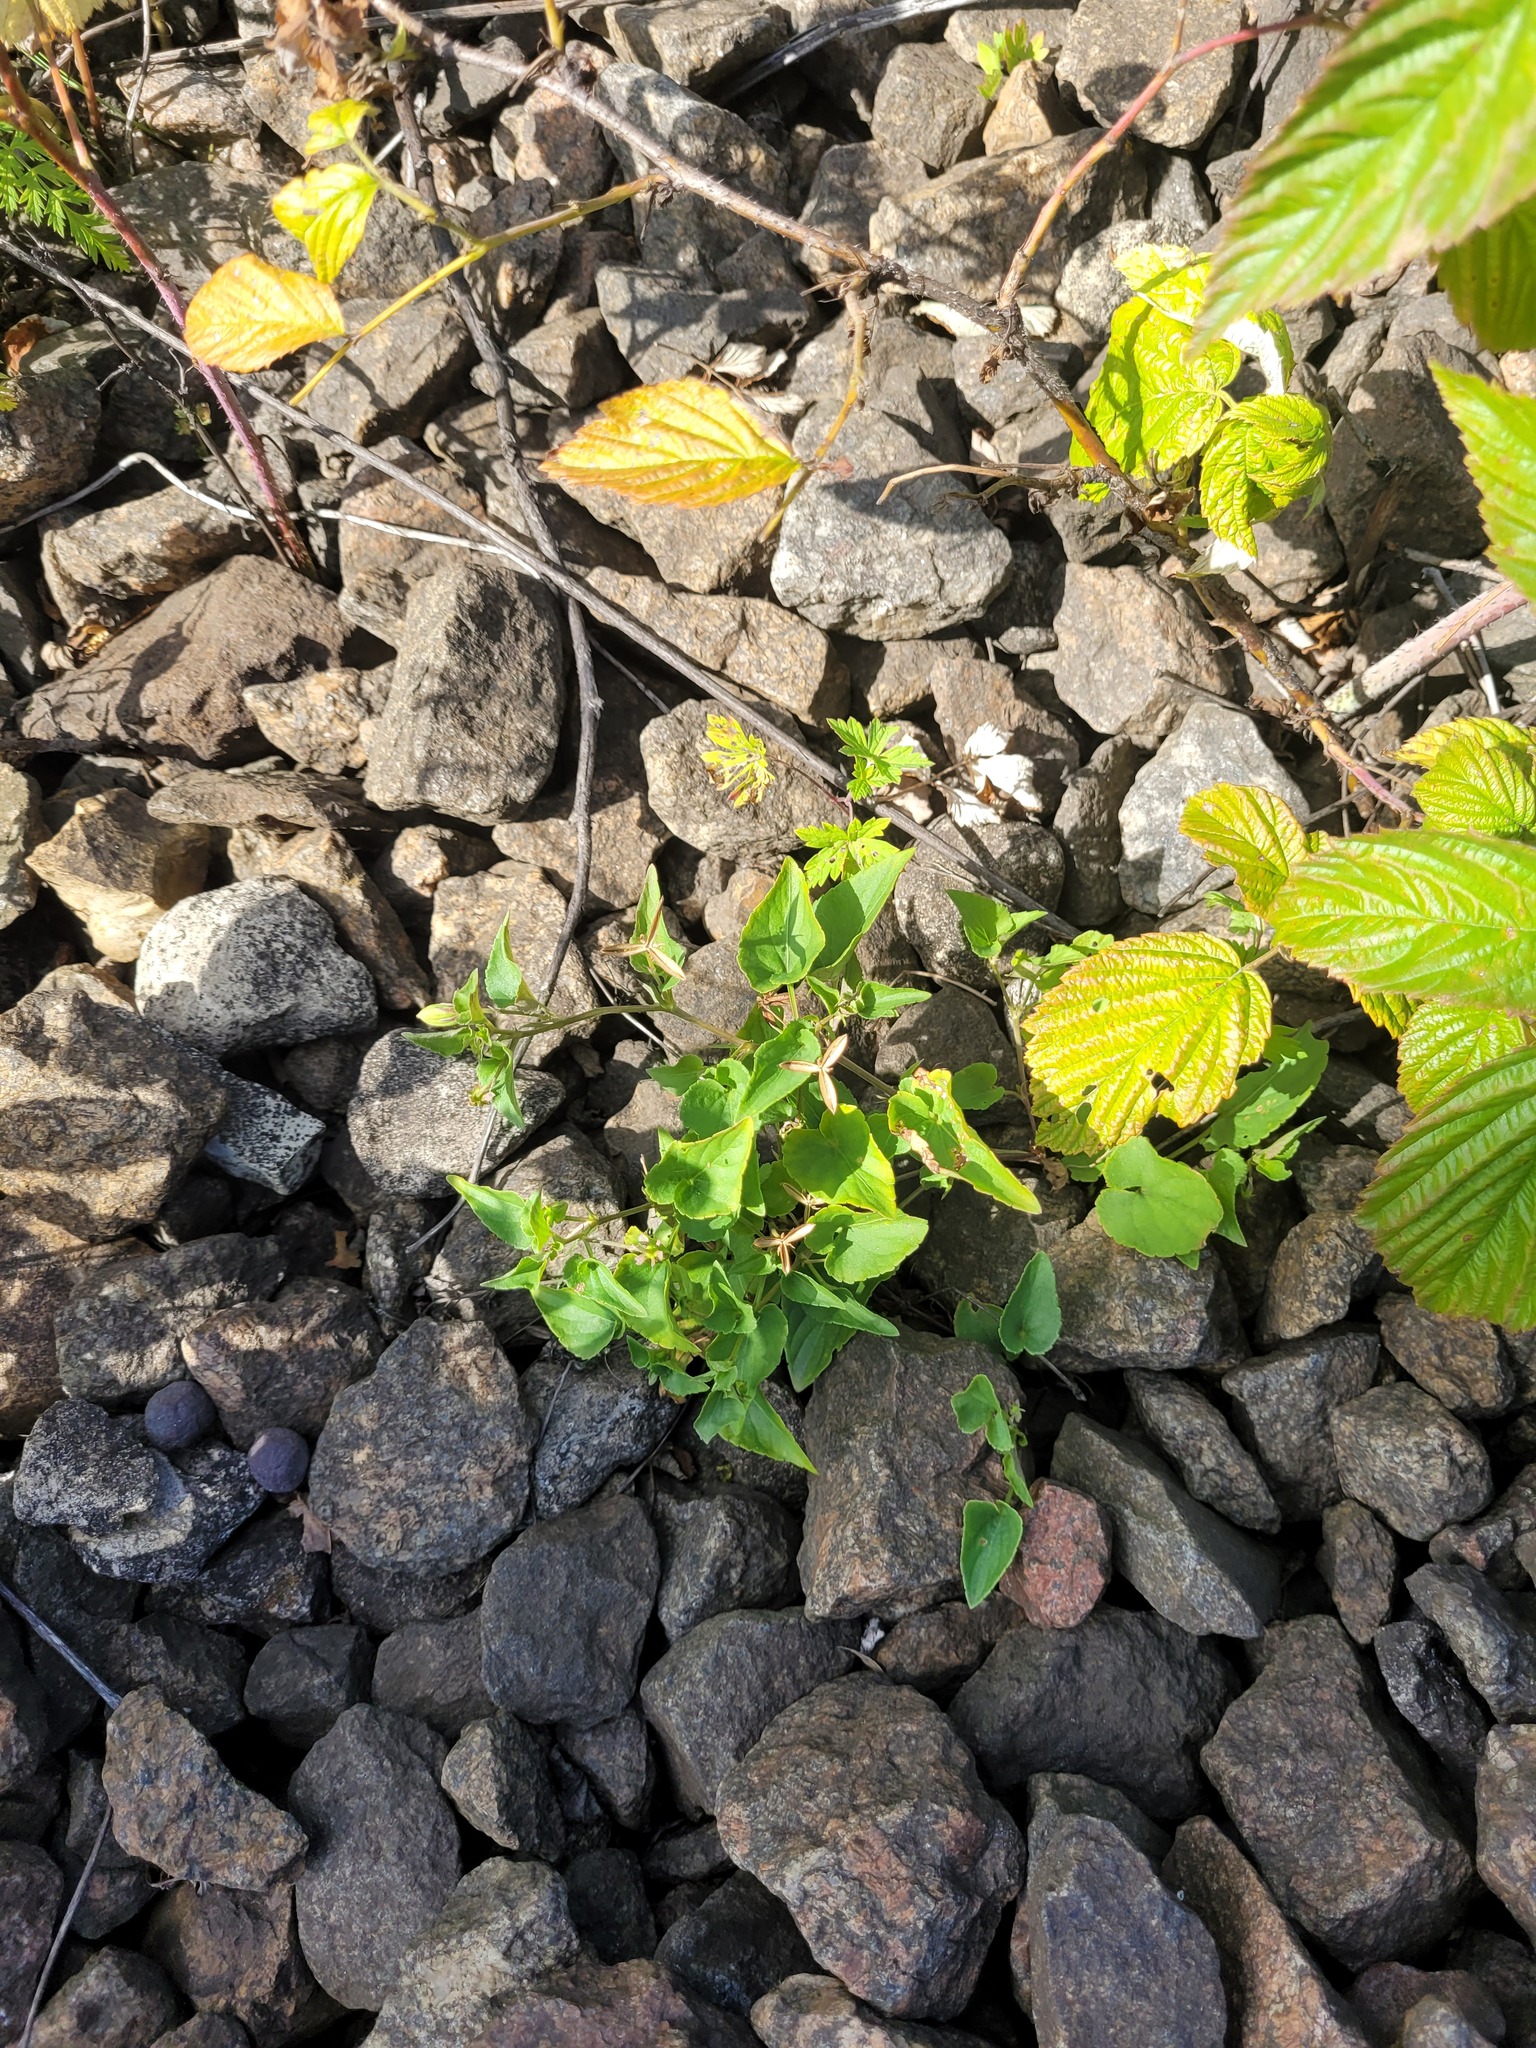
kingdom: Plantae
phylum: Tracheophyta
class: Magnoliopsida
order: Malpighiales
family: Violaceae
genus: Viola
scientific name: Viola canina
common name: Heath dog-violet
